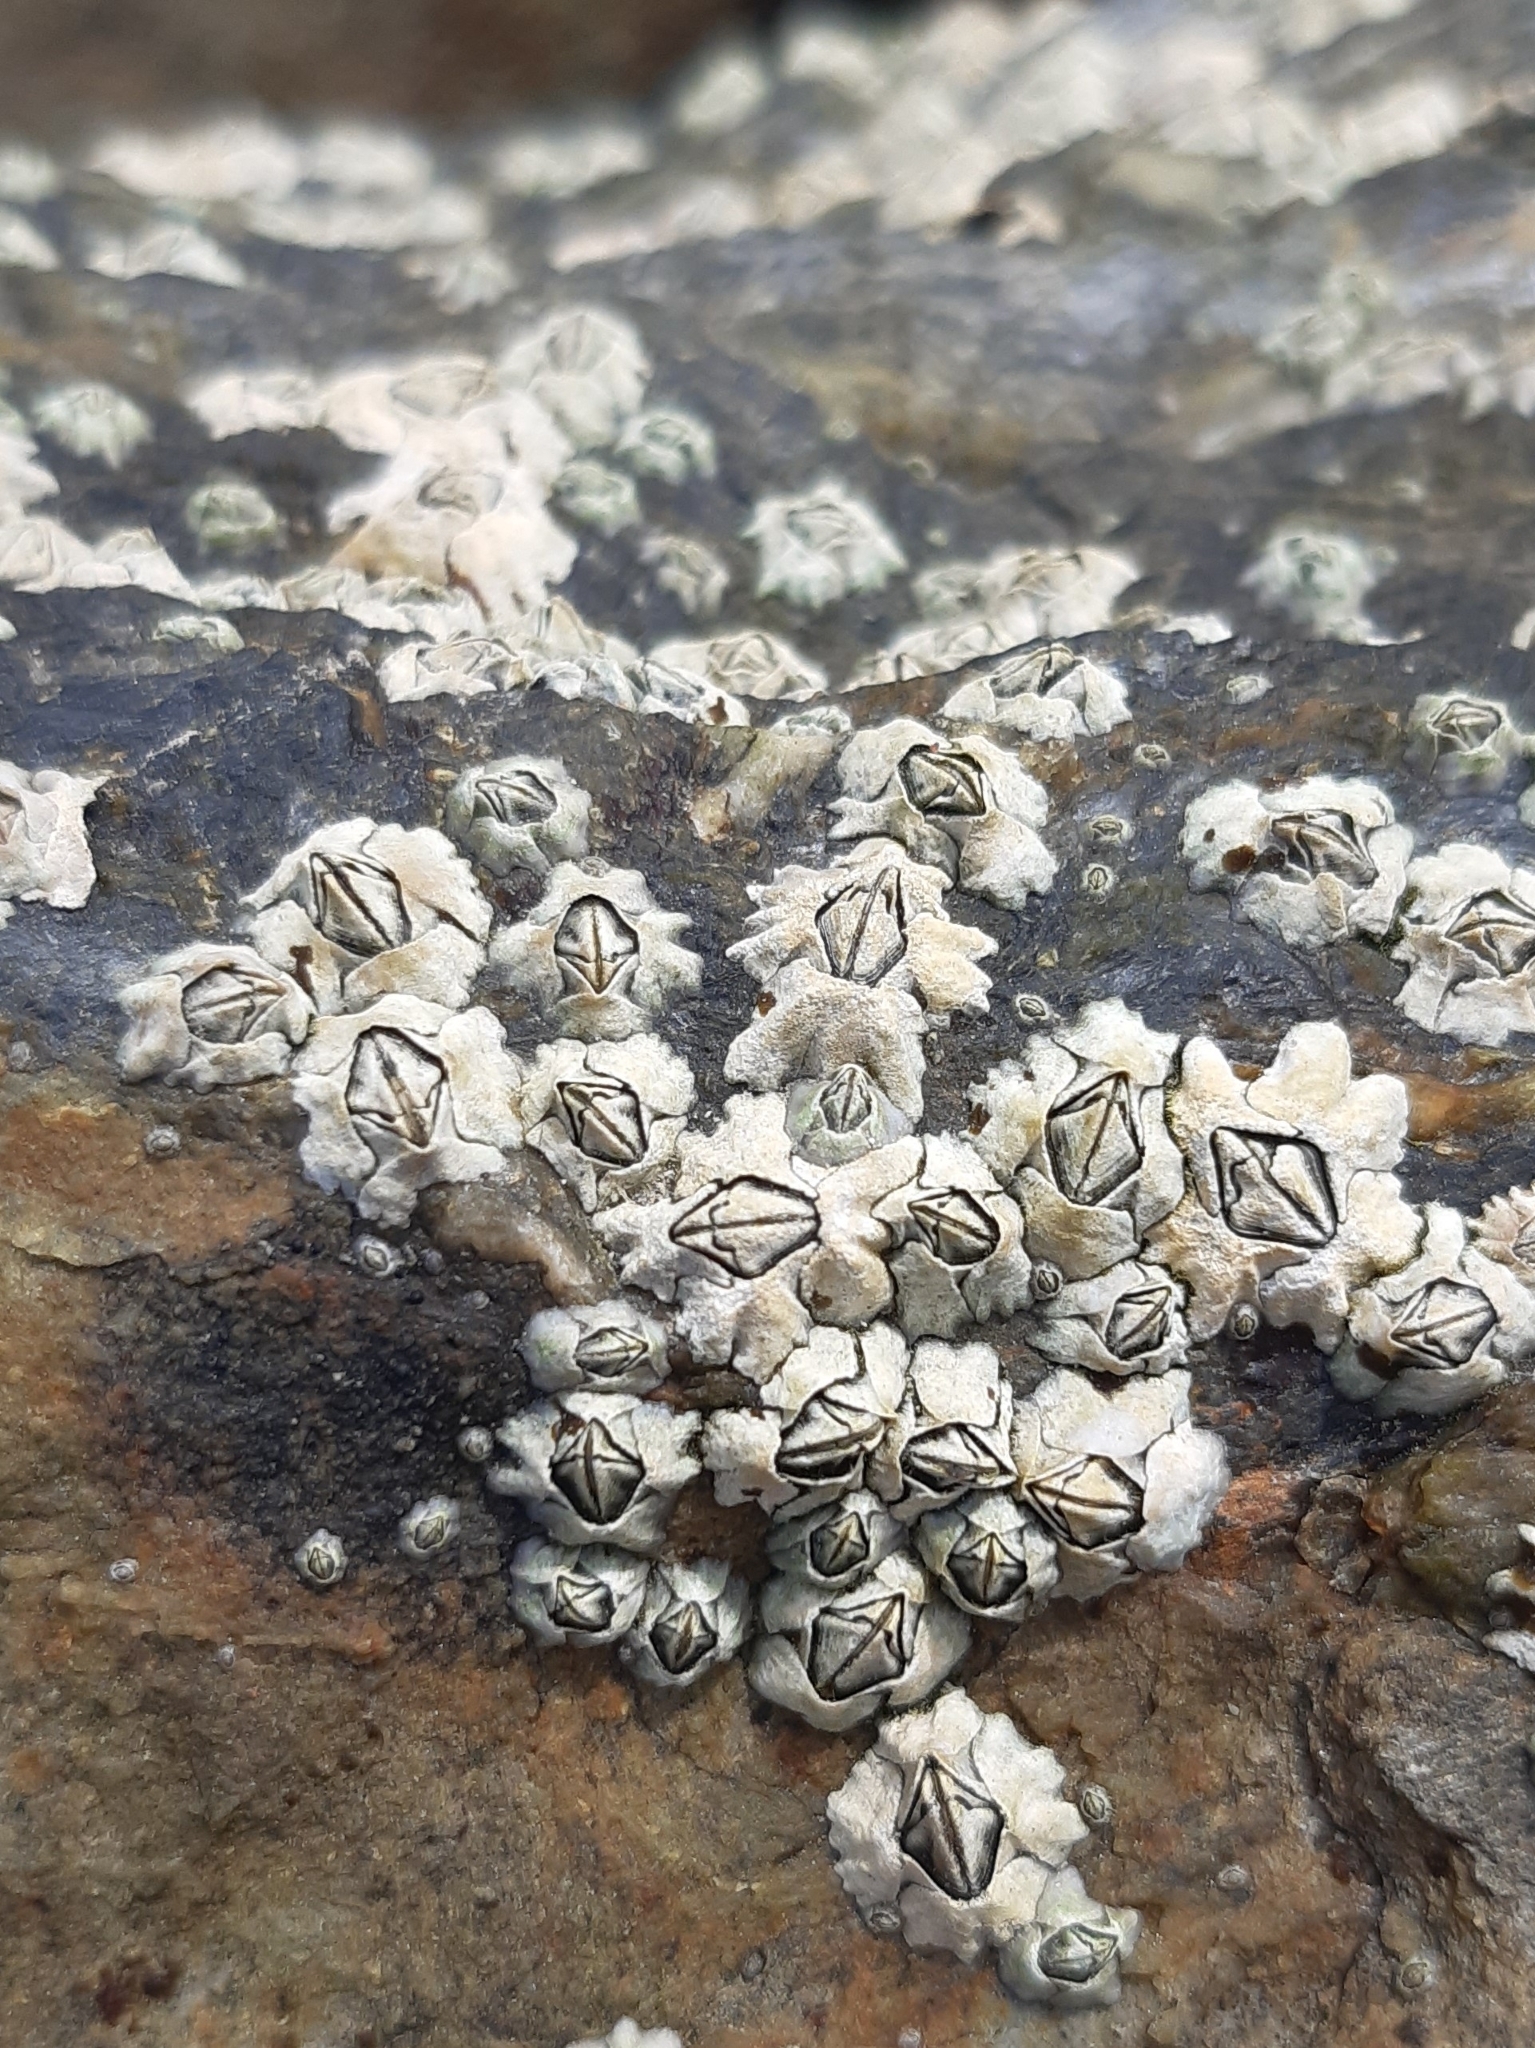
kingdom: Animalia
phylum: Arthropoda
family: Elminiidae
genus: Austrominius
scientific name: Austrominius modestus
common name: Australasian barnacle
